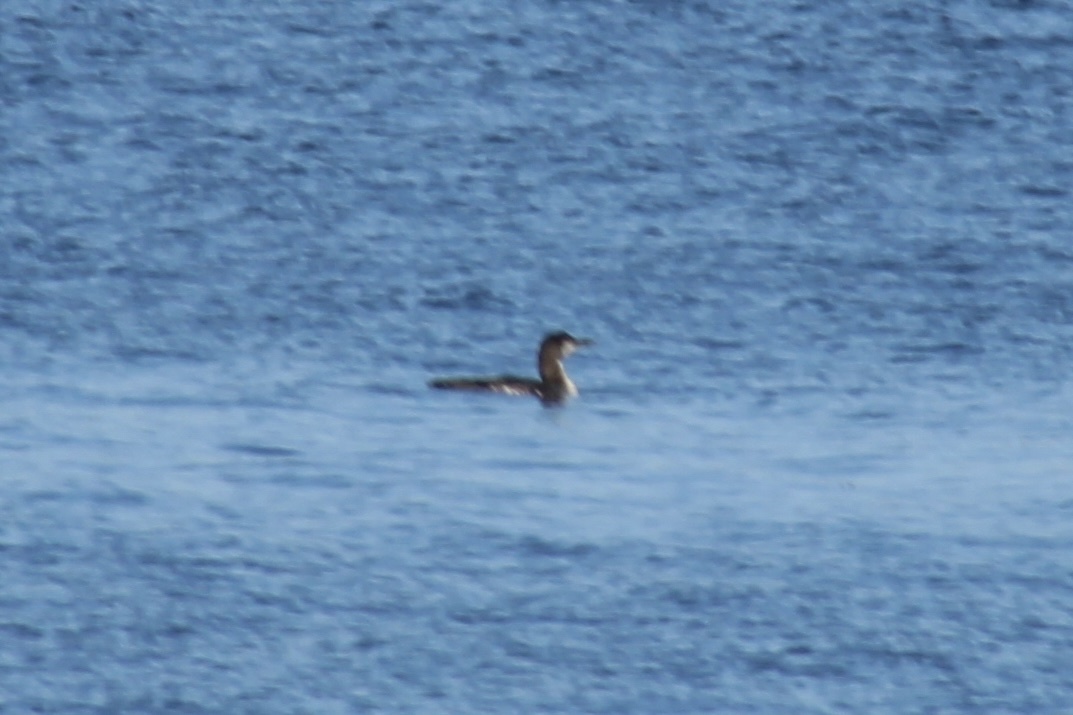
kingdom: Animalia
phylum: Chordata
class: Aves
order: Gaviiformes
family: Gaviidae
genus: Gavia
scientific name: Gavia immer
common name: Common loon
